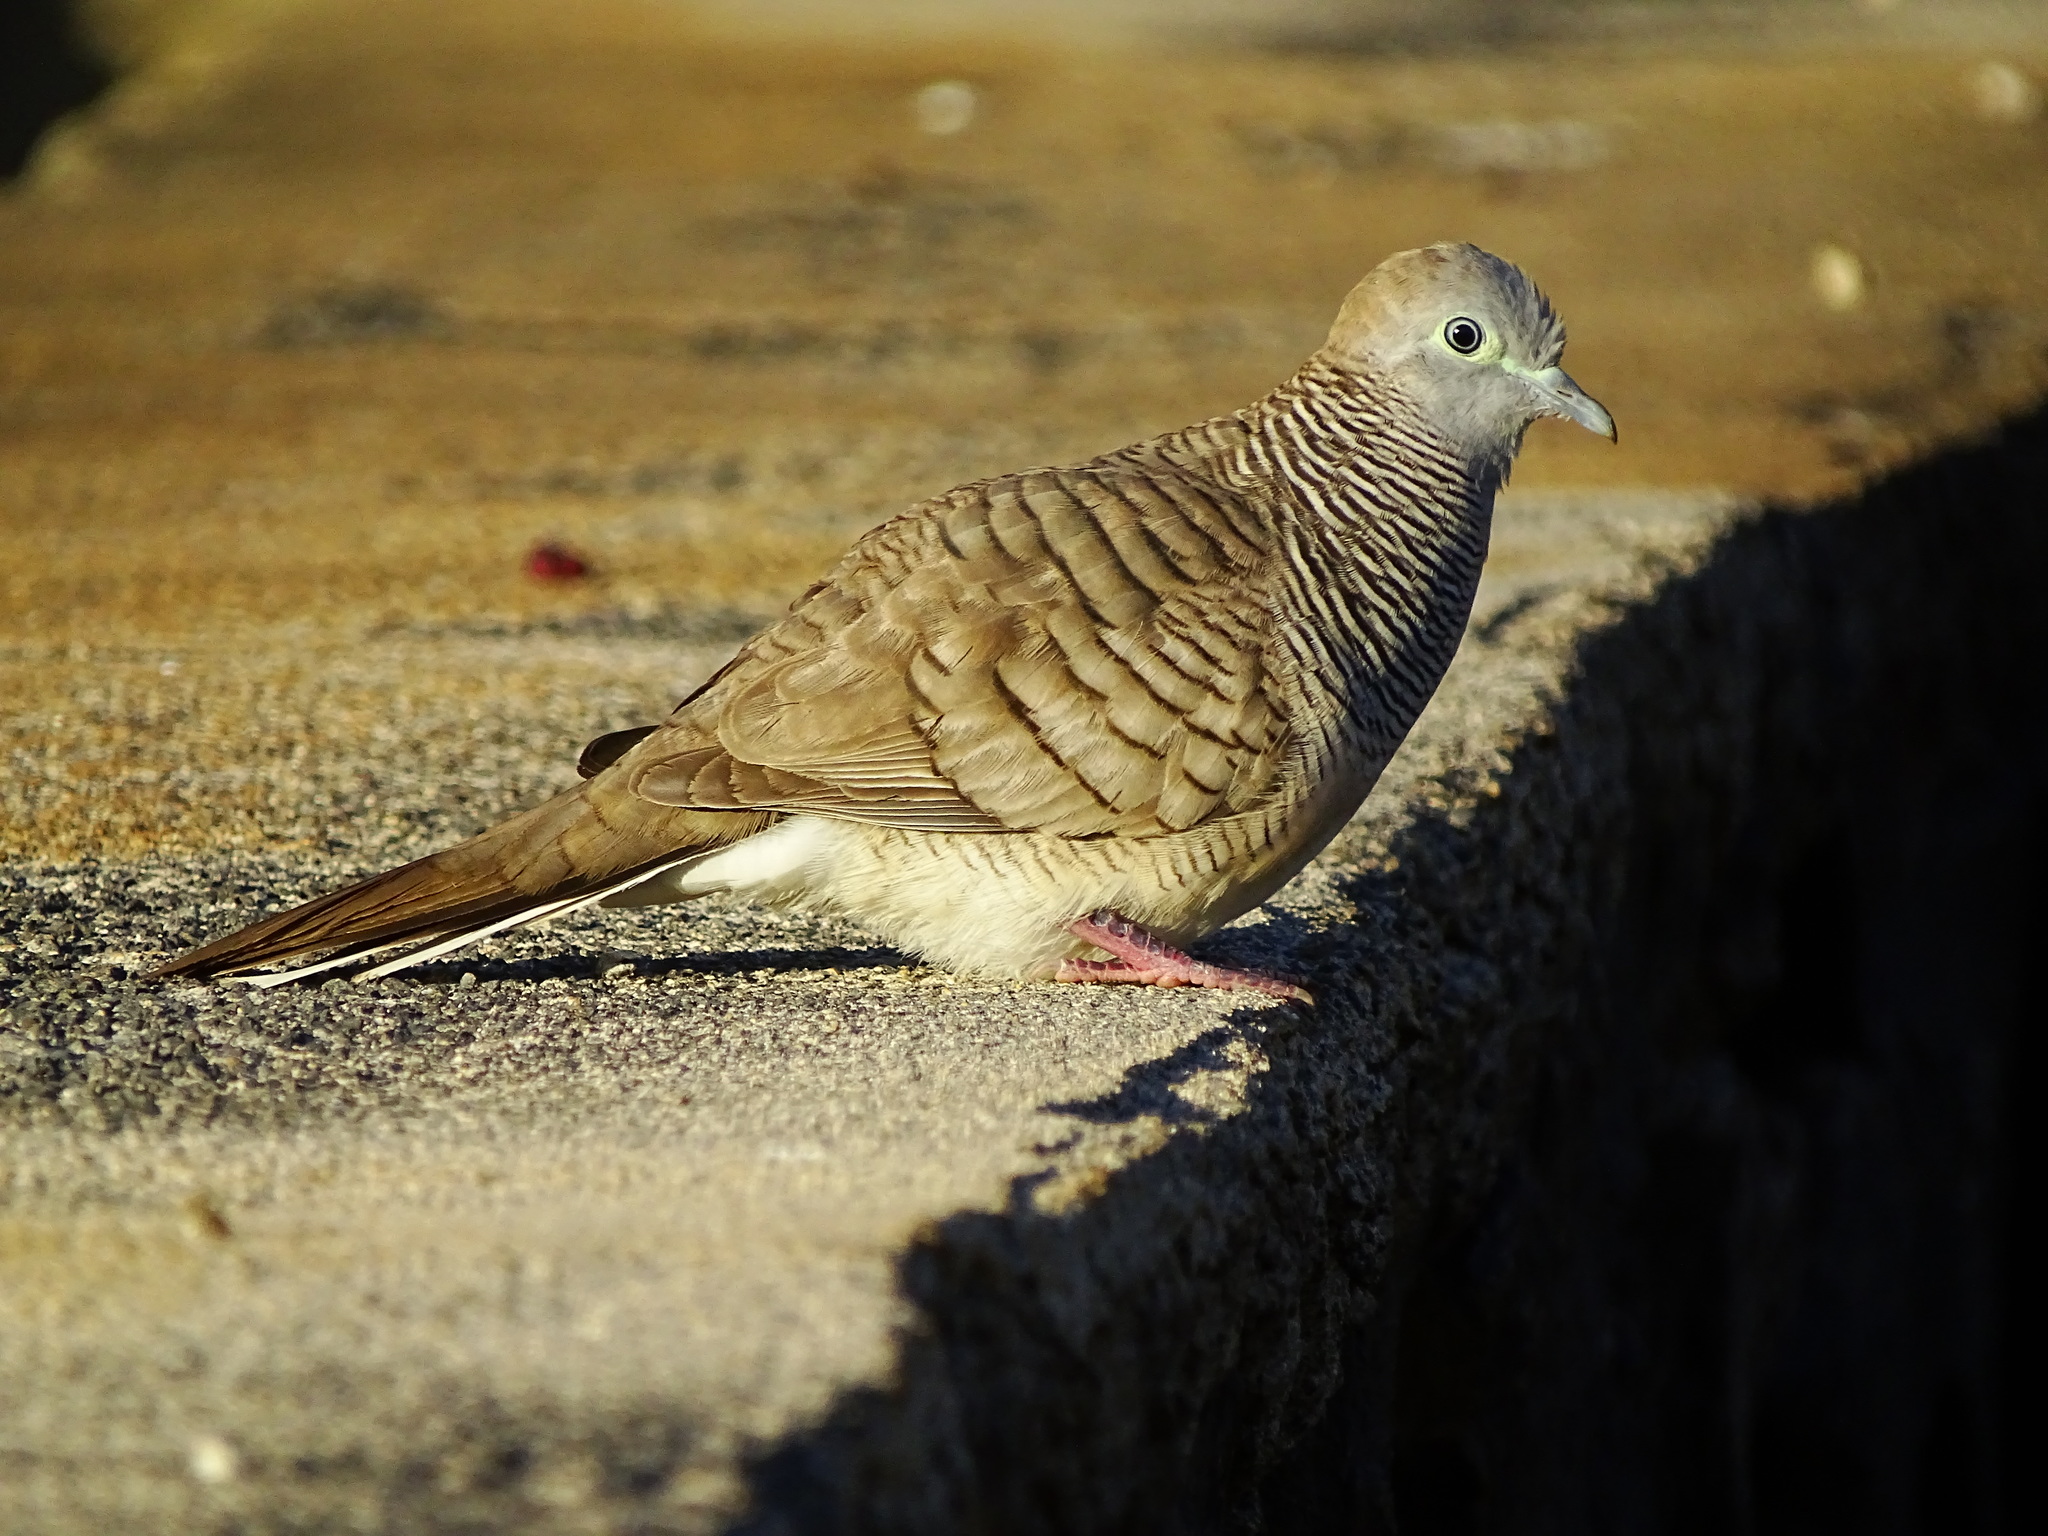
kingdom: Animalia
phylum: Chordata
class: Aves
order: Columbiformes
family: Columbidae
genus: Geopelia
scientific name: Geopelia striata
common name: Zebra dove
